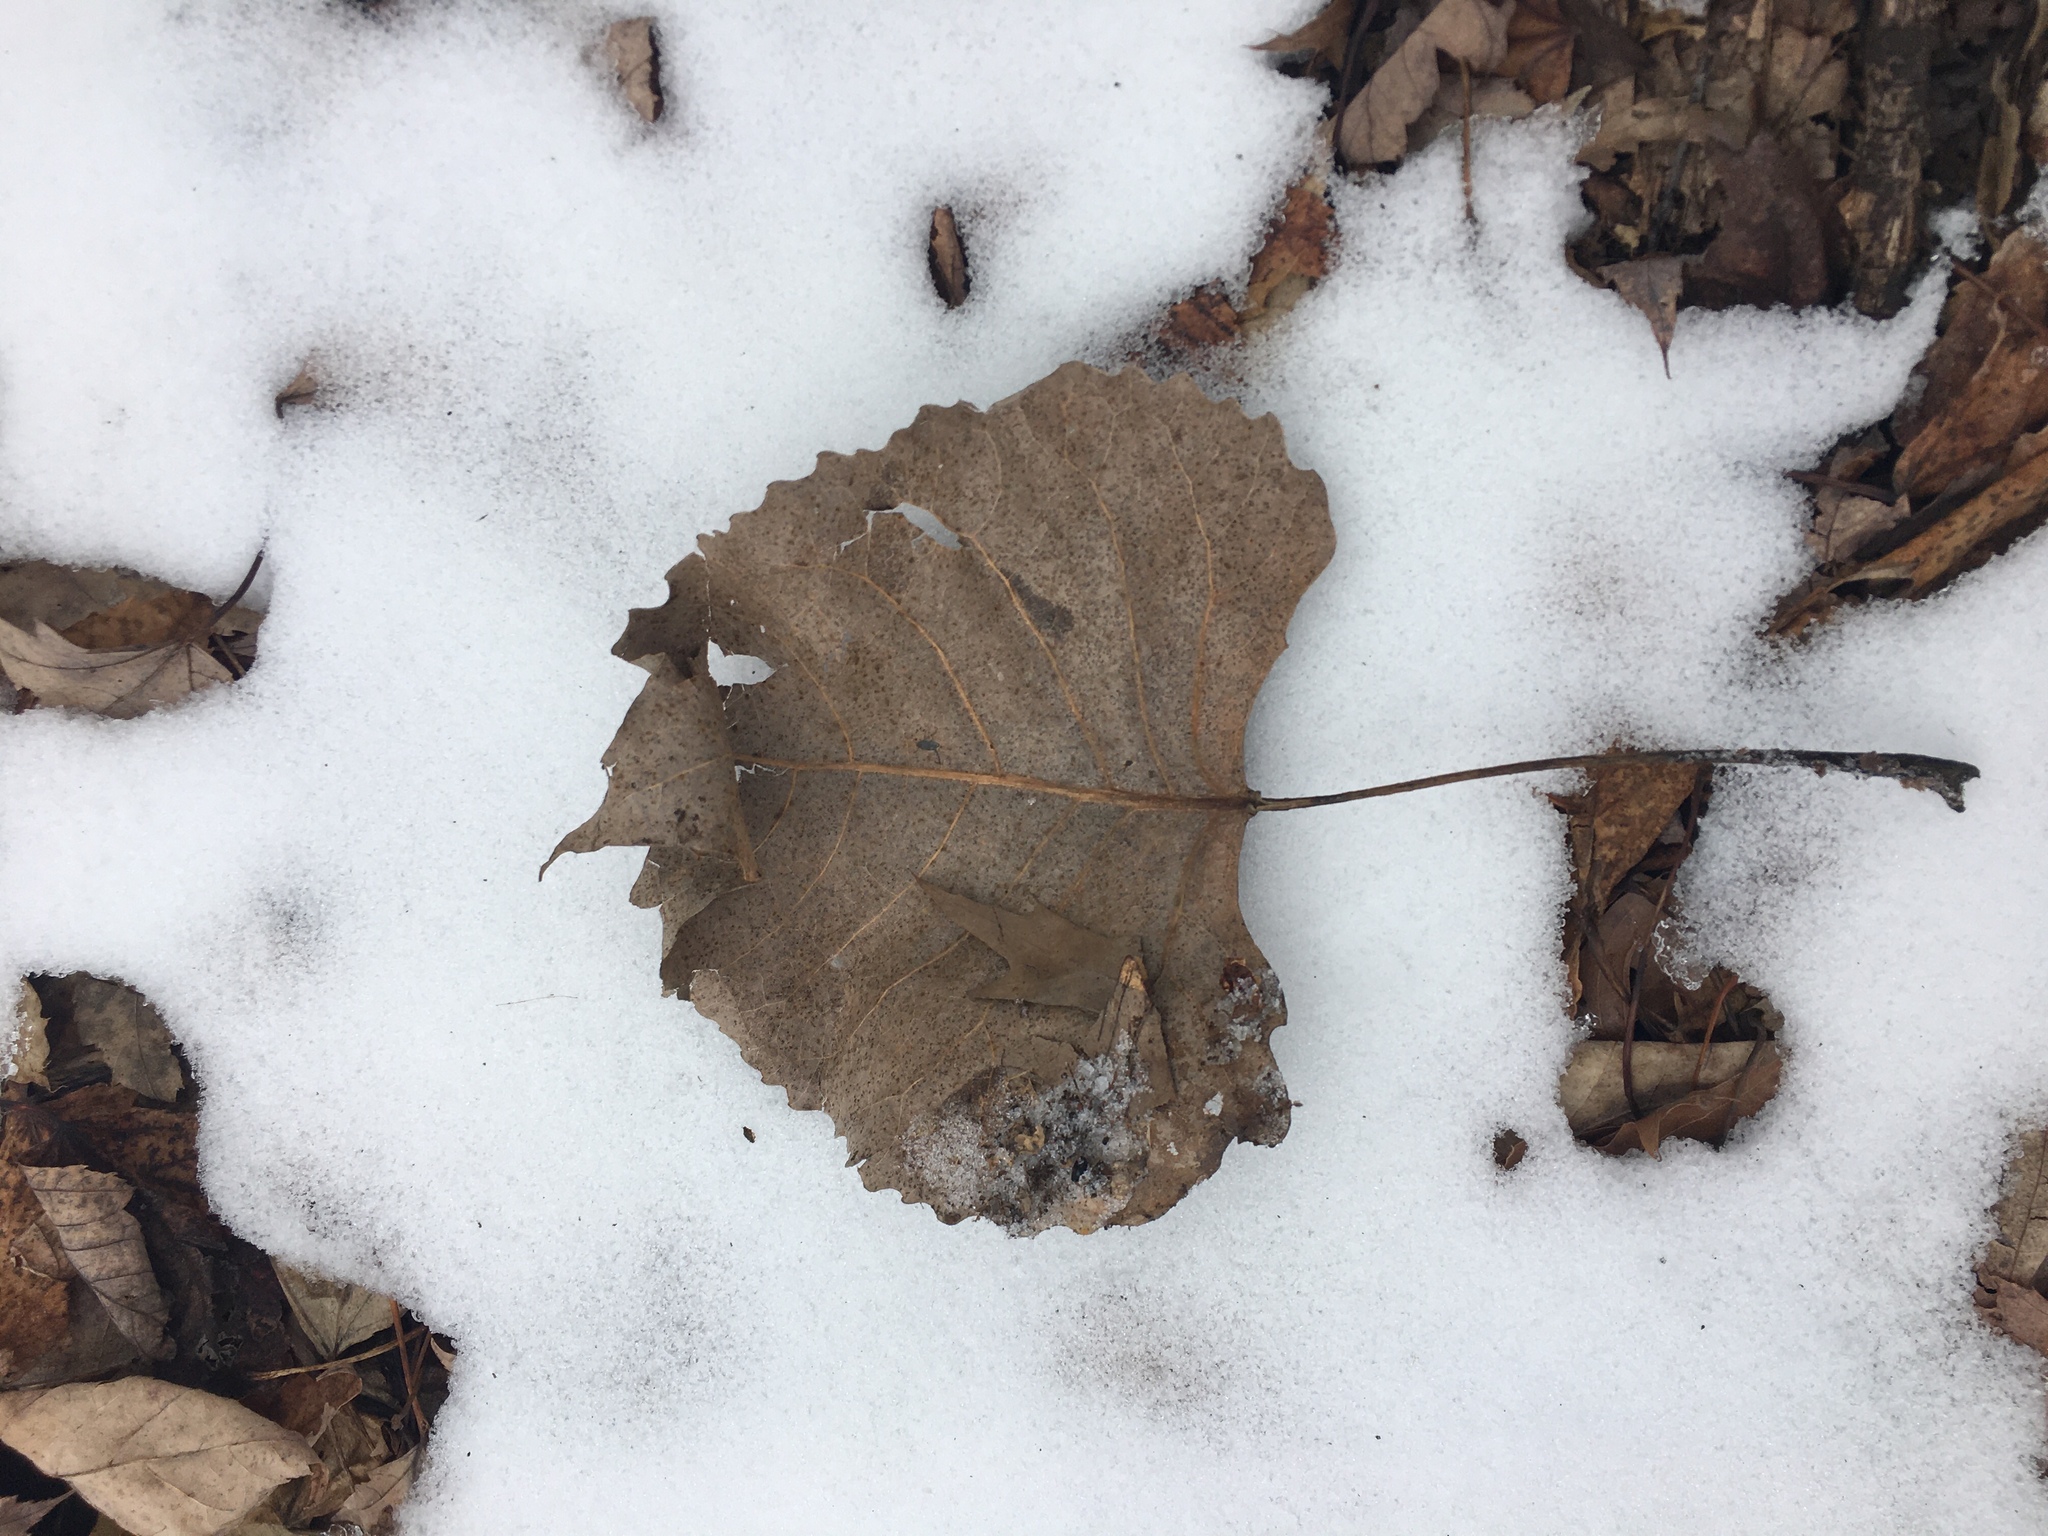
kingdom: Plantae
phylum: Tracheophyta
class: Magnoliopsida
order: Malpighiales
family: Salicaceae
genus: Populus
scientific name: Populus deltoides
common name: Eastern cottonwood
